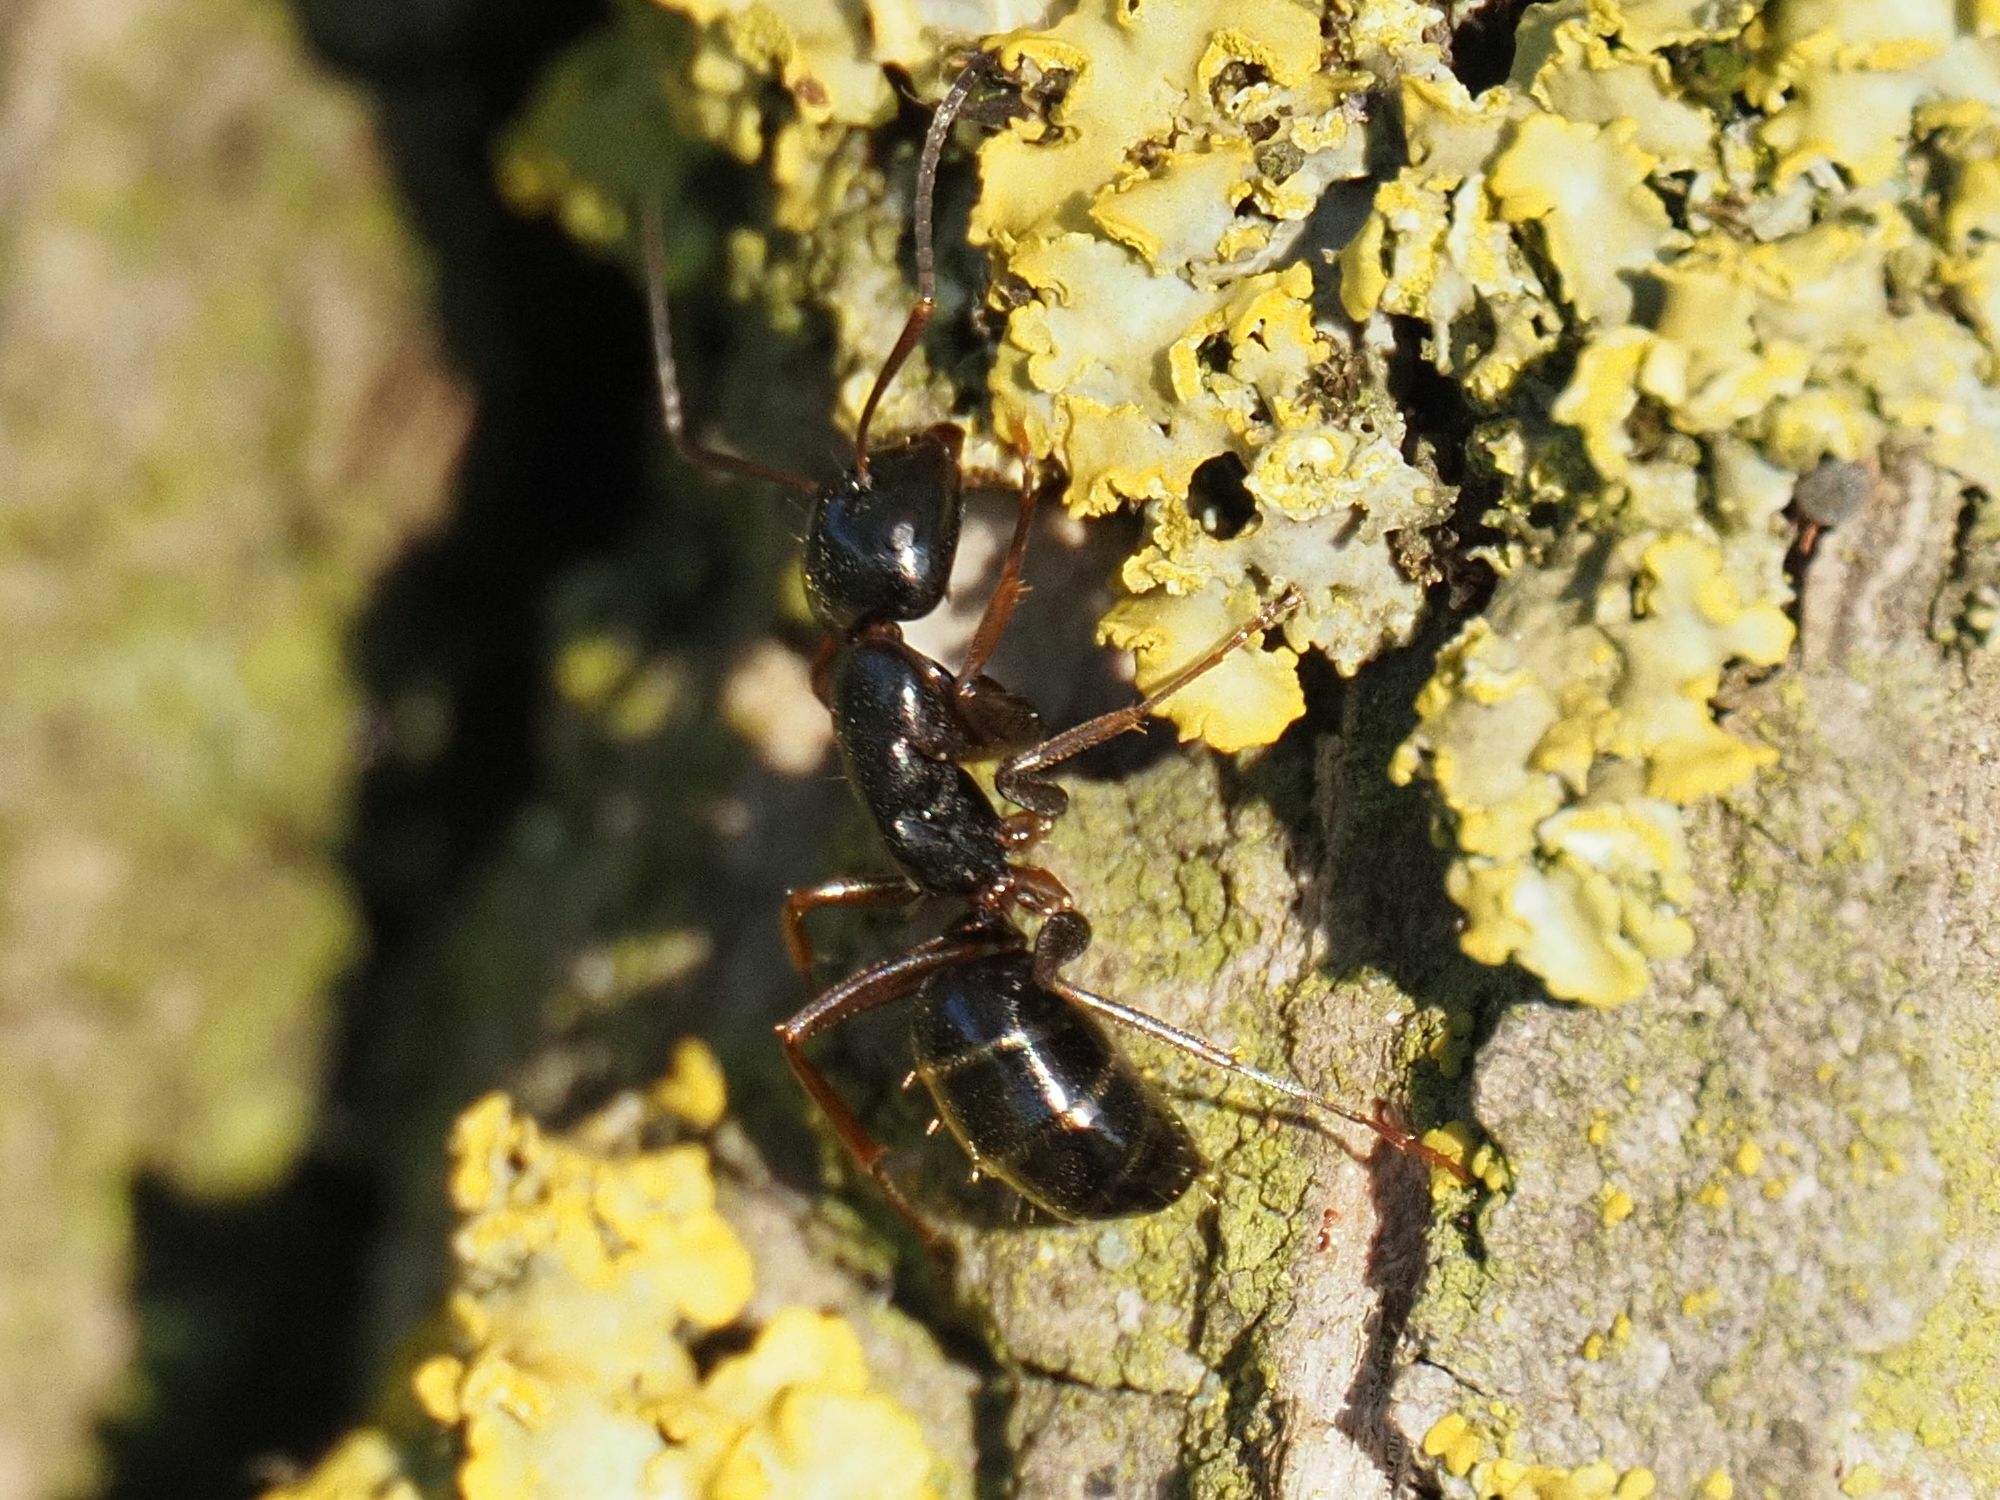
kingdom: Animalia
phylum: Arthropoda
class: Insecta
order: Hymenoptera
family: Formicidae
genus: Camponotus
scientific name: Camponotus fallax
